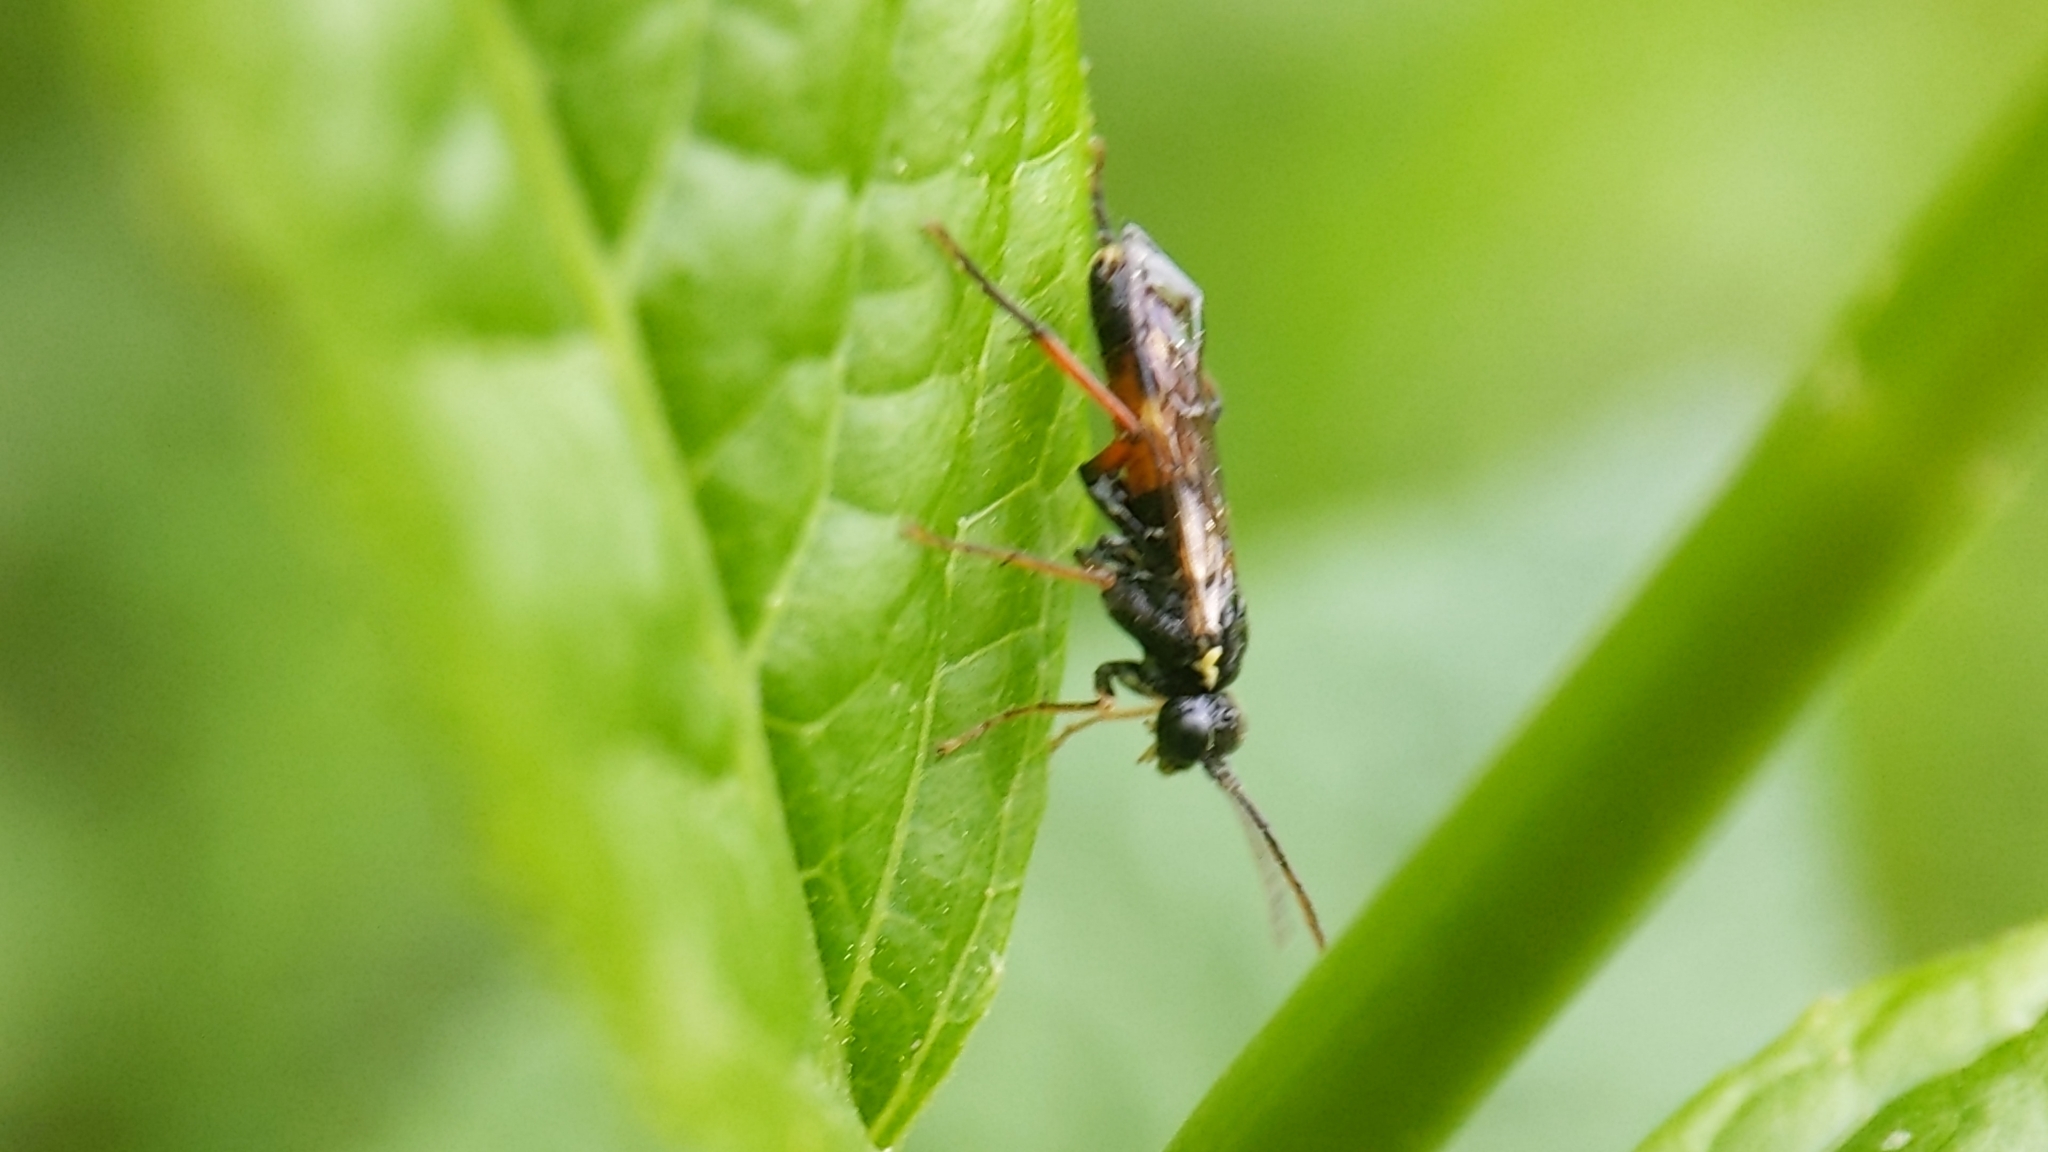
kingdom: Animalia
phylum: Arthropoda
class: Insecta
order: Hymenoptera
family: Tenthredinidae
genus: Aglaostigma
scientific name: Aglaostigma aucupariae
